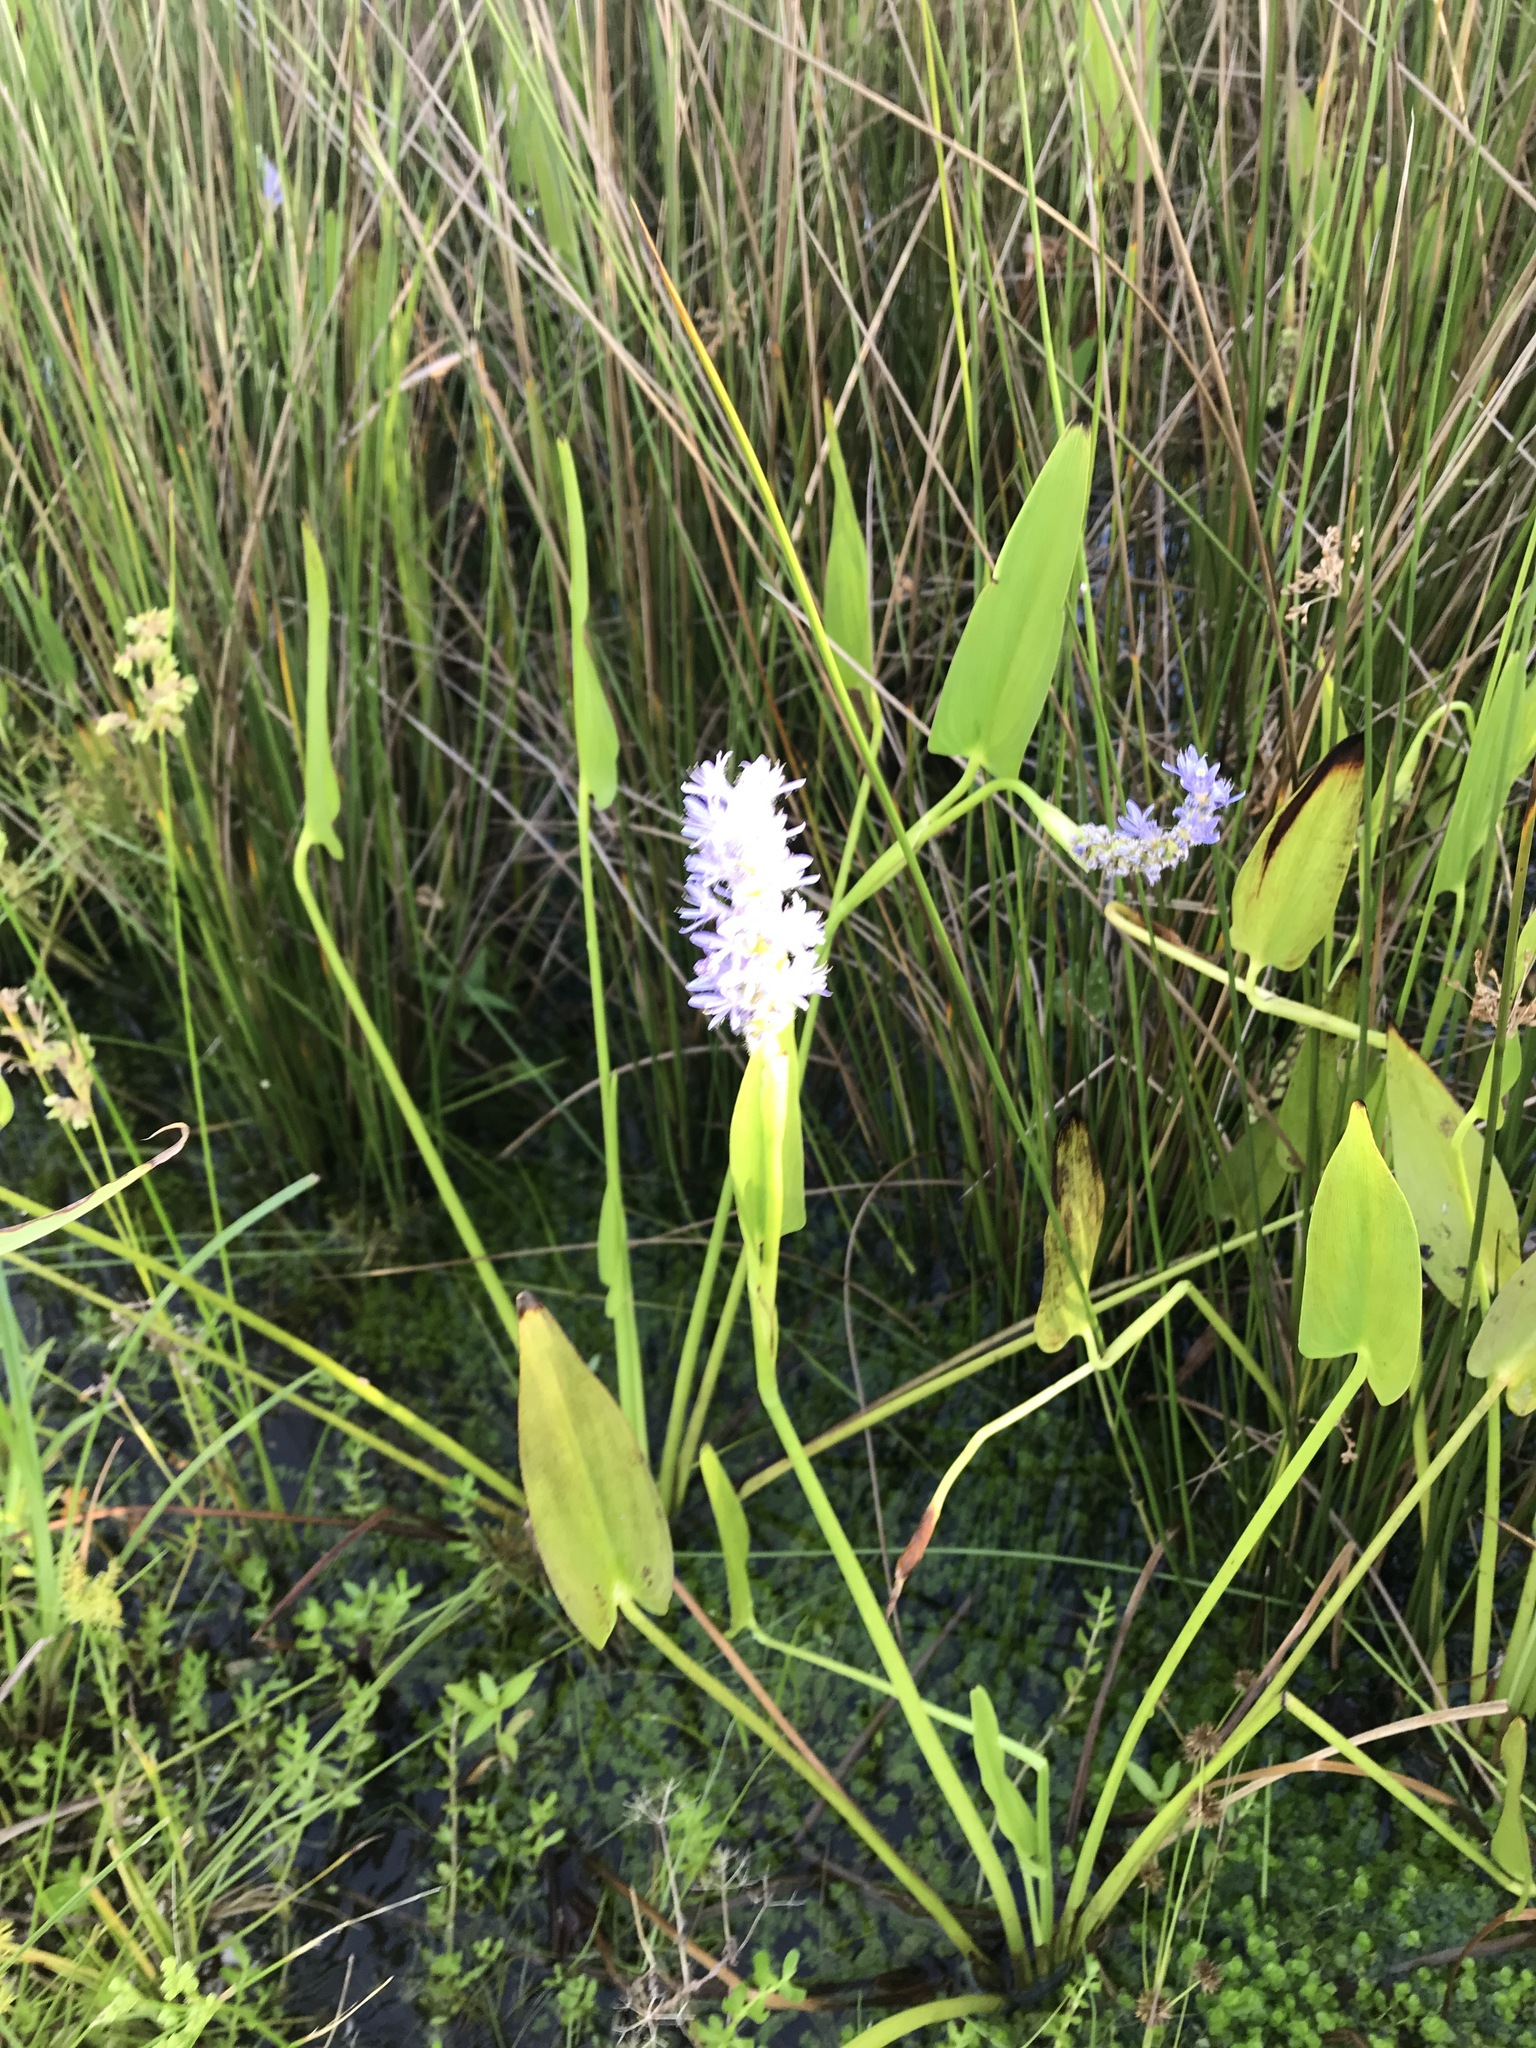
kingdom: Plantae
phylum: Tracheophyta
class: Liliopsida
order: Commelinales
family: Pontederiaceae
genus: Pontederia
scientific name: Pontederia cordata
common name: Pickerelweed
